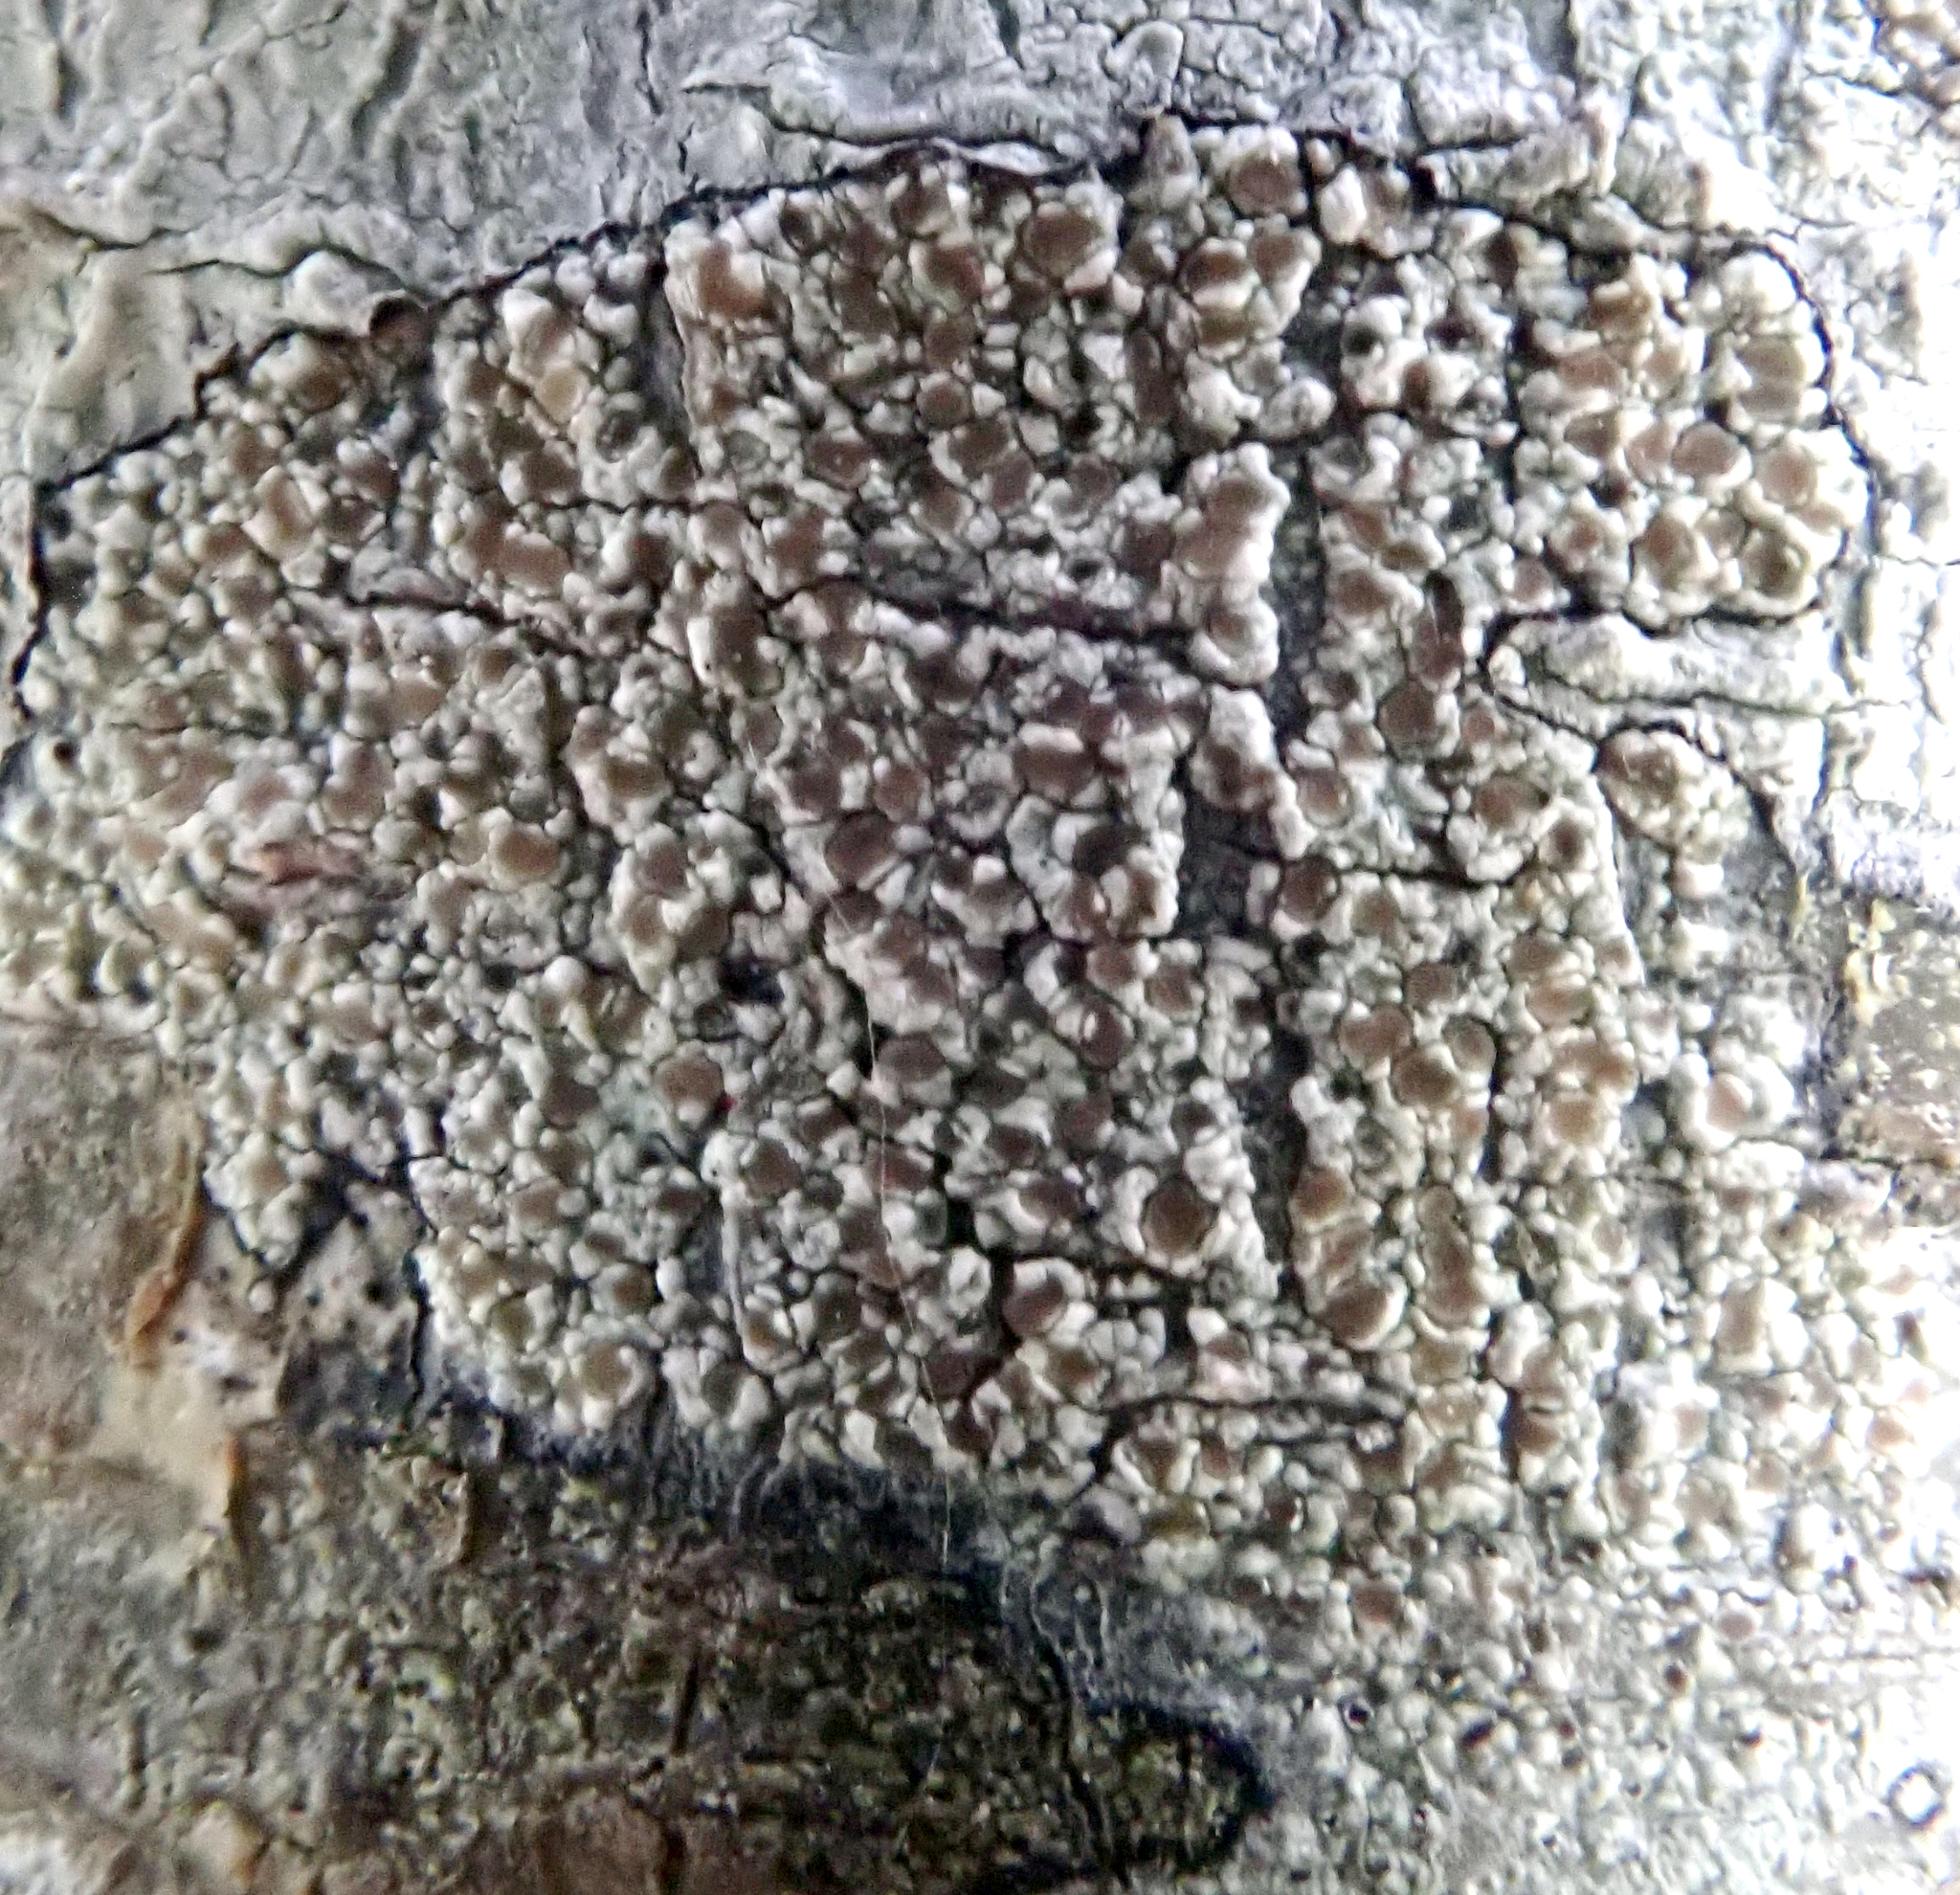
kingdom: Fungi
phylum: Ascomycota
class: Lecanoromycetes
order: Lecanorales
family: Lecanoraceae
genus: Lecanora
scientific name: Lecanora kohu
